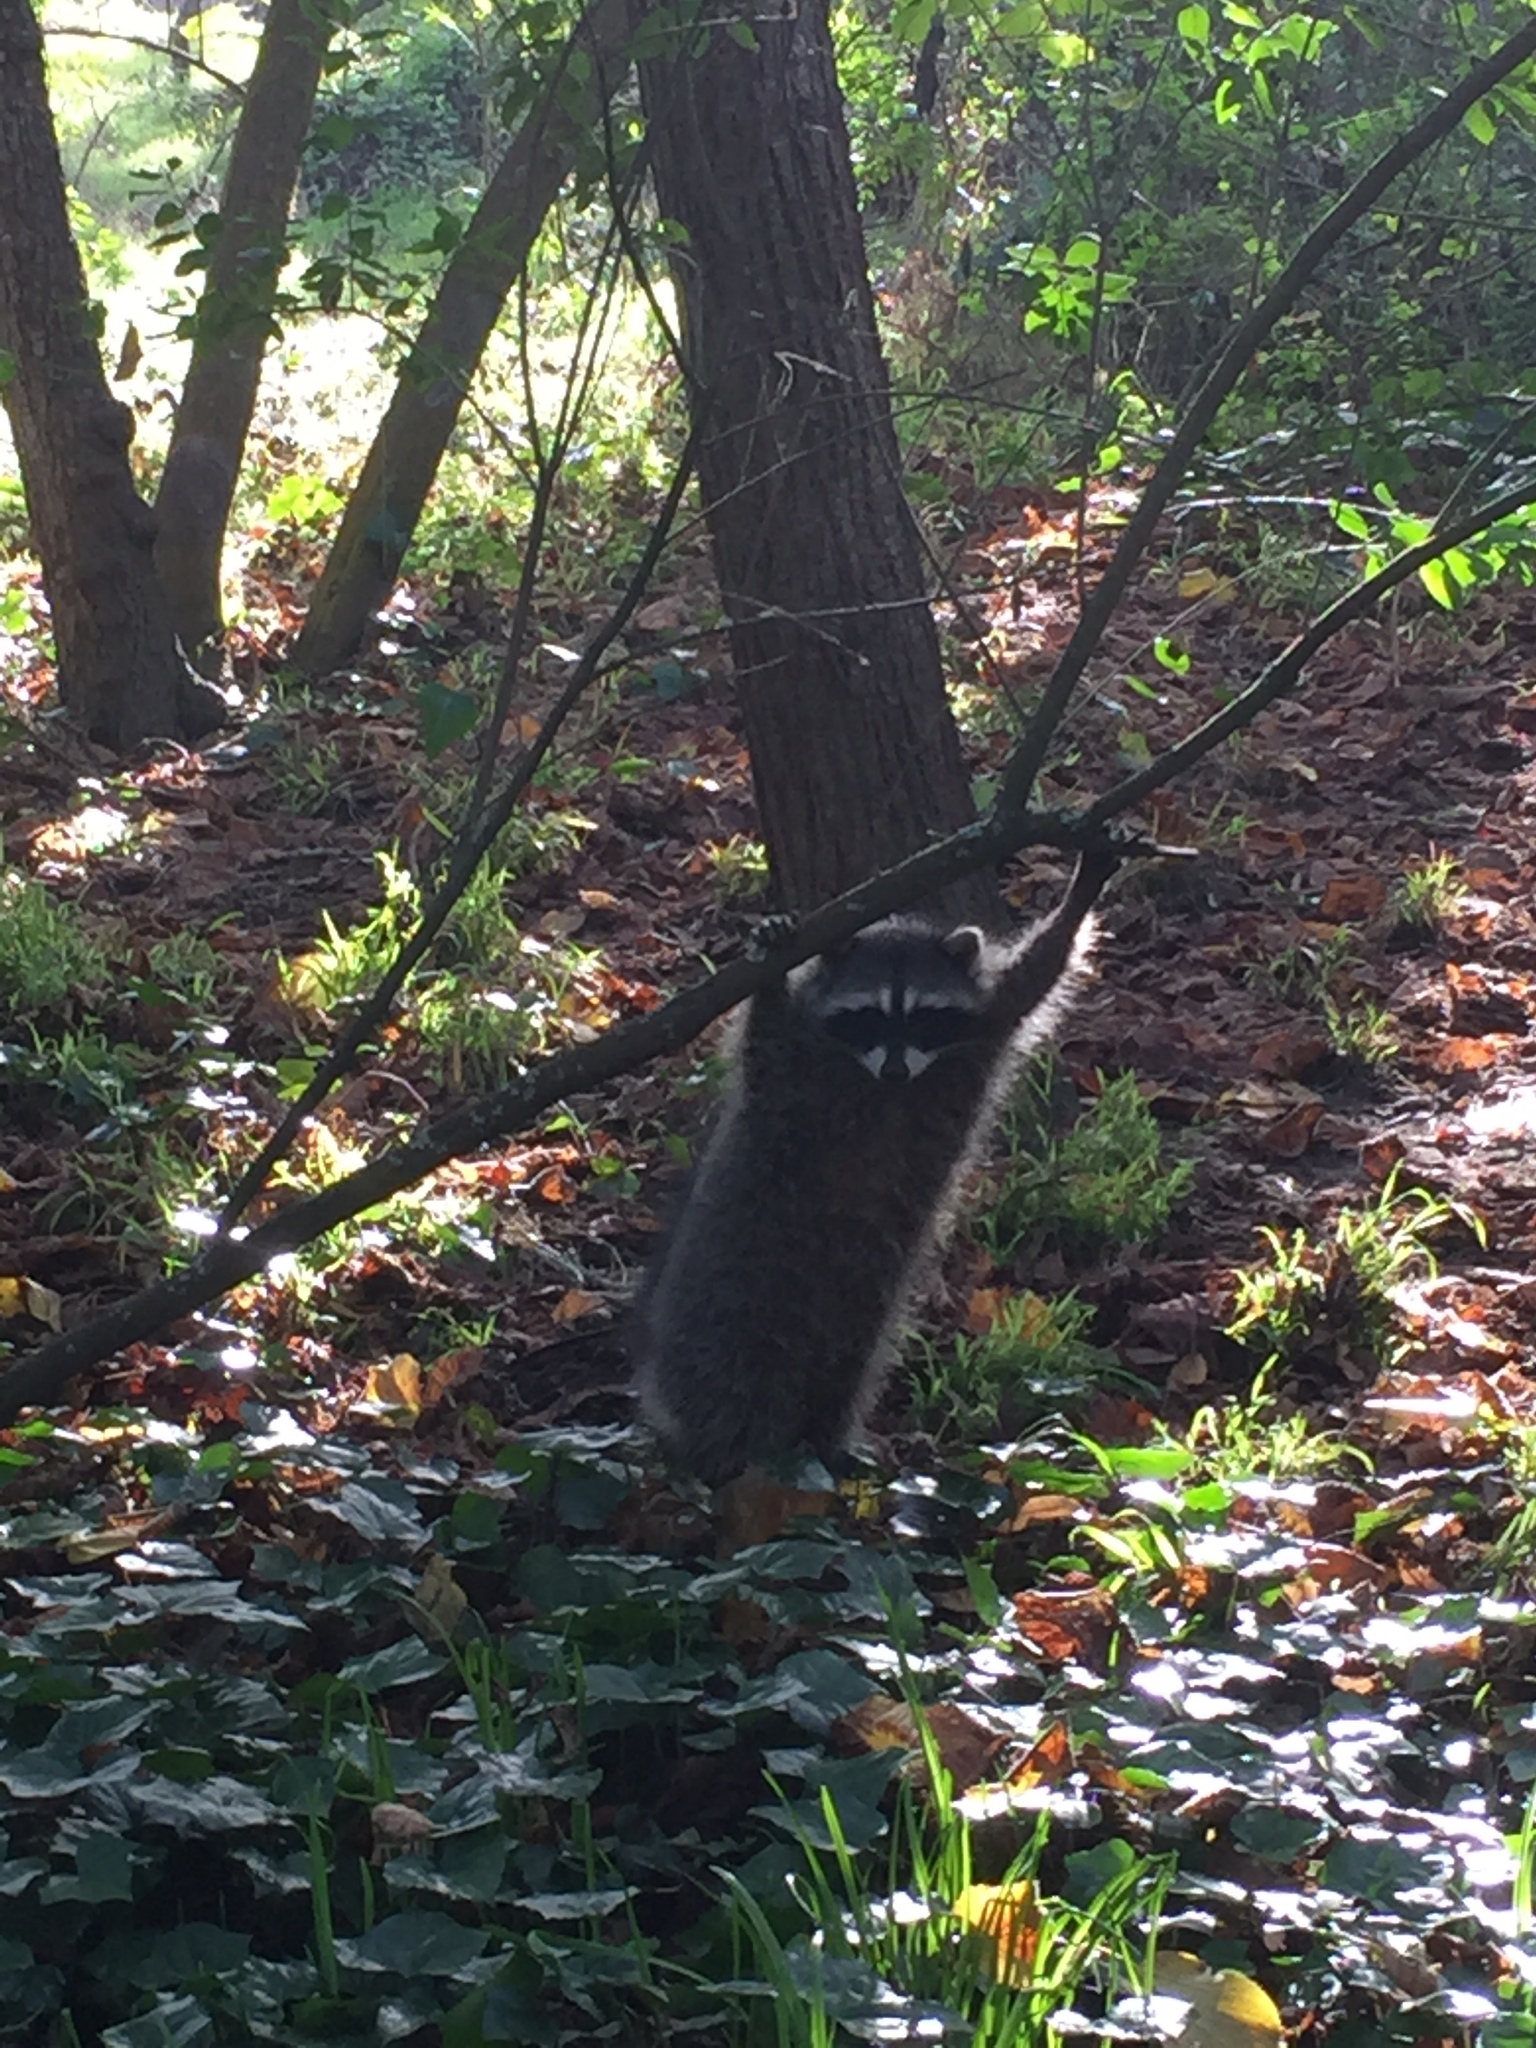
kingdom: Animalia
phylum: Chordata
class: Mammalia
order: Carnivora
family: Procyonidae
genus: Procyon
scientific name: Procyon lotor
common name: Raccoon
